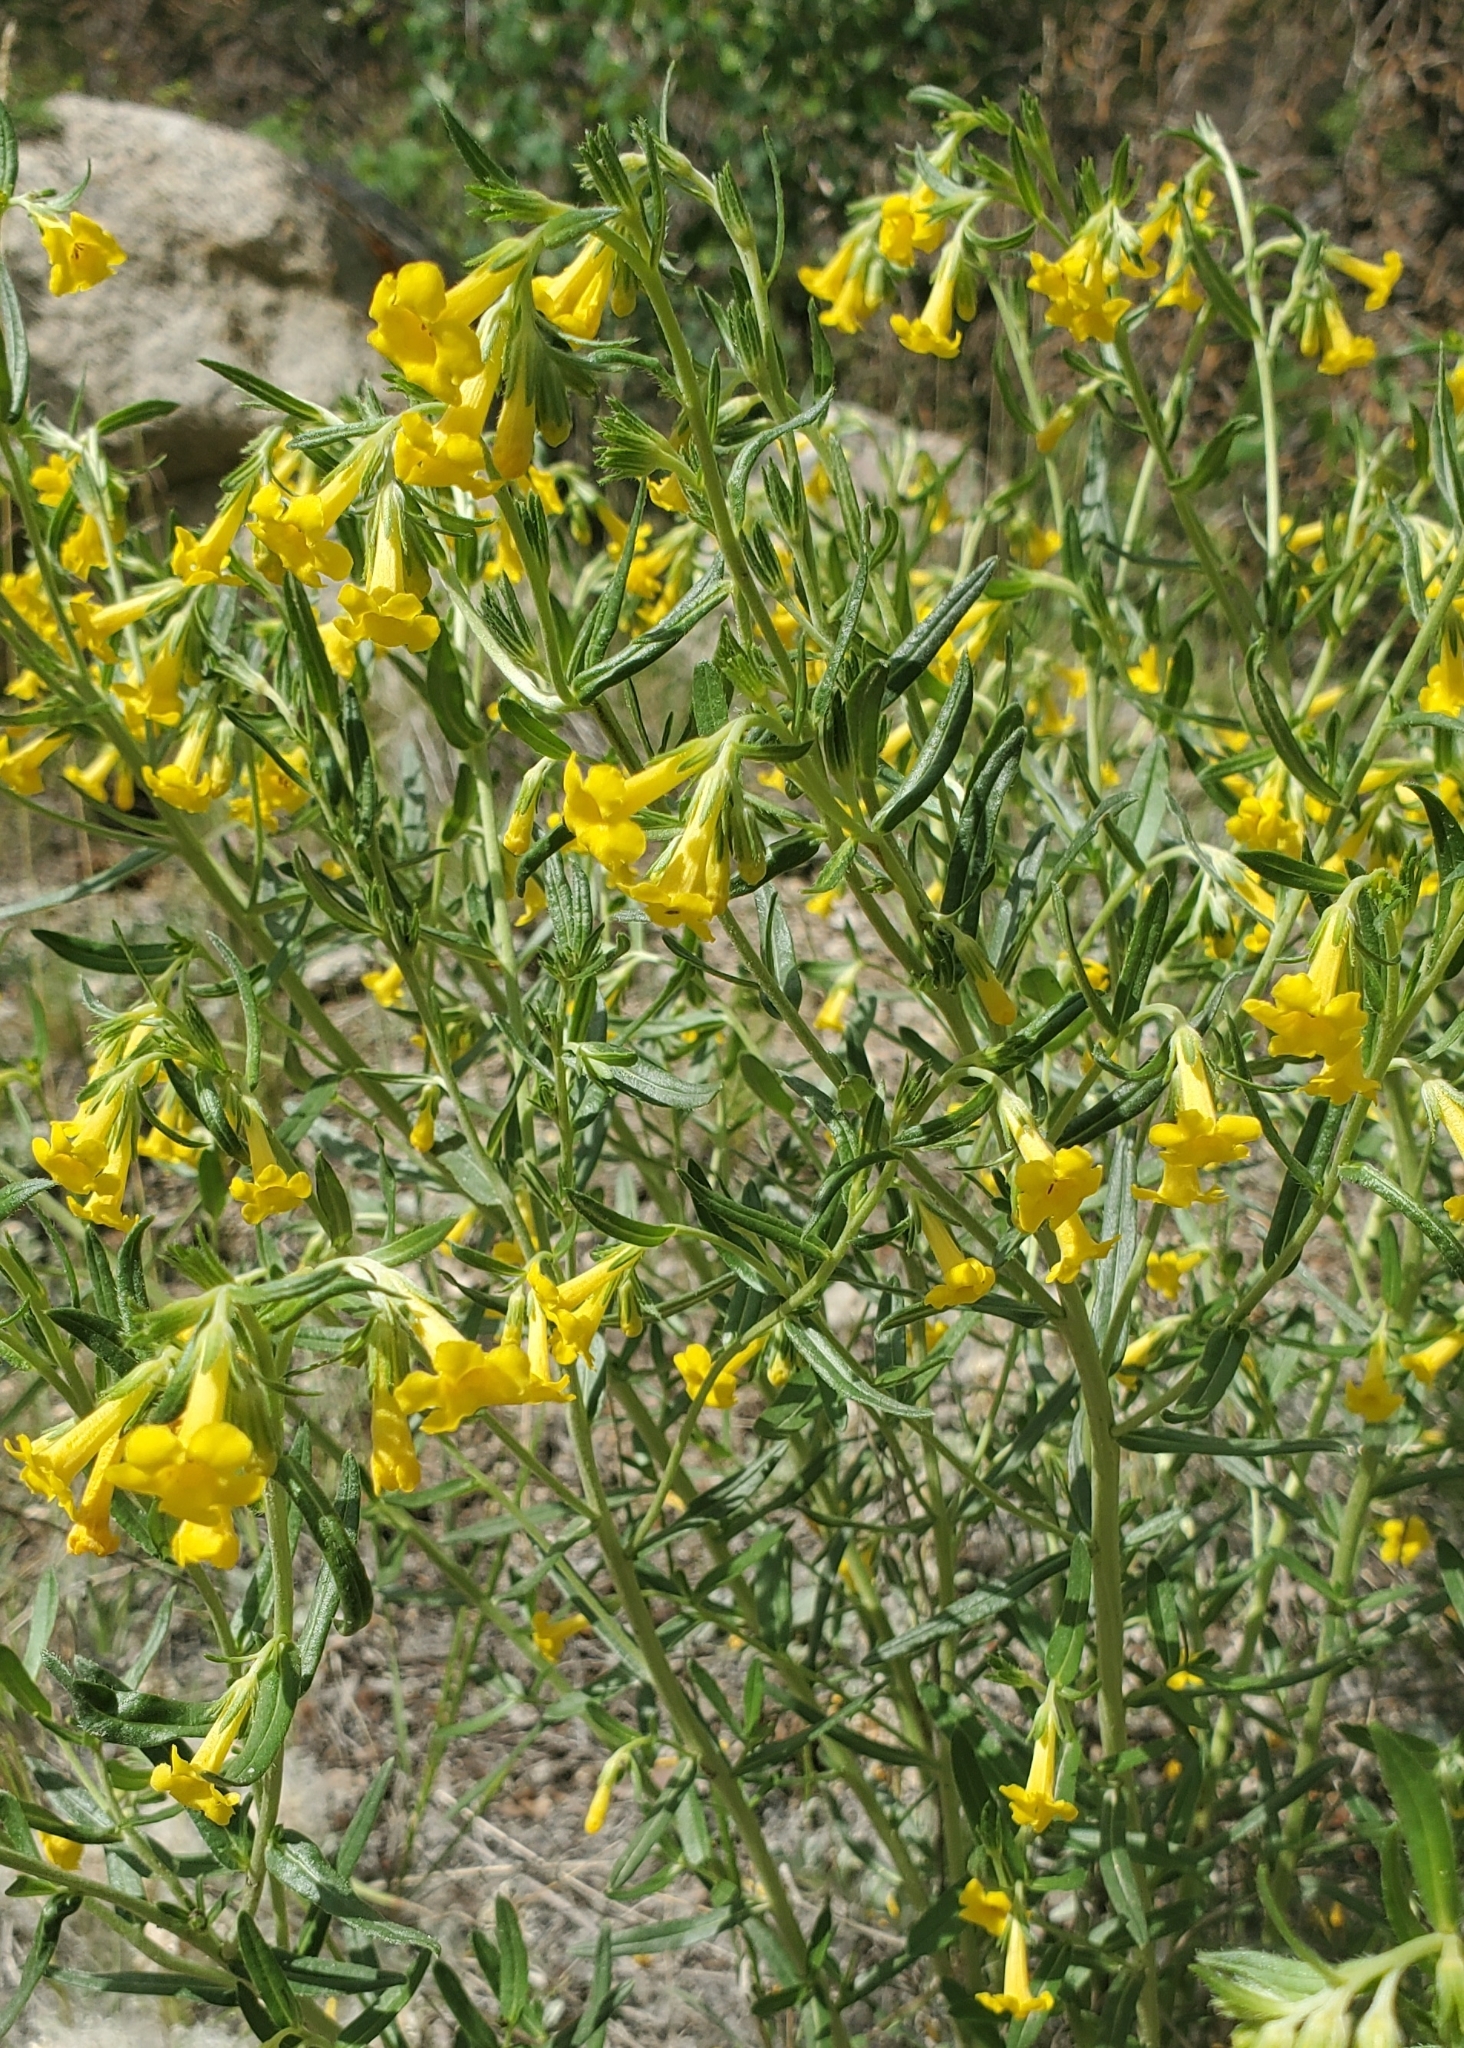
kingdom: Plantae
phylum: Tracheophyta
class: Magnoliopsida
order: Boraginales
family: Boraginaceae
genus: Lithospermum
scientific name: Lithospermum multiflorum
